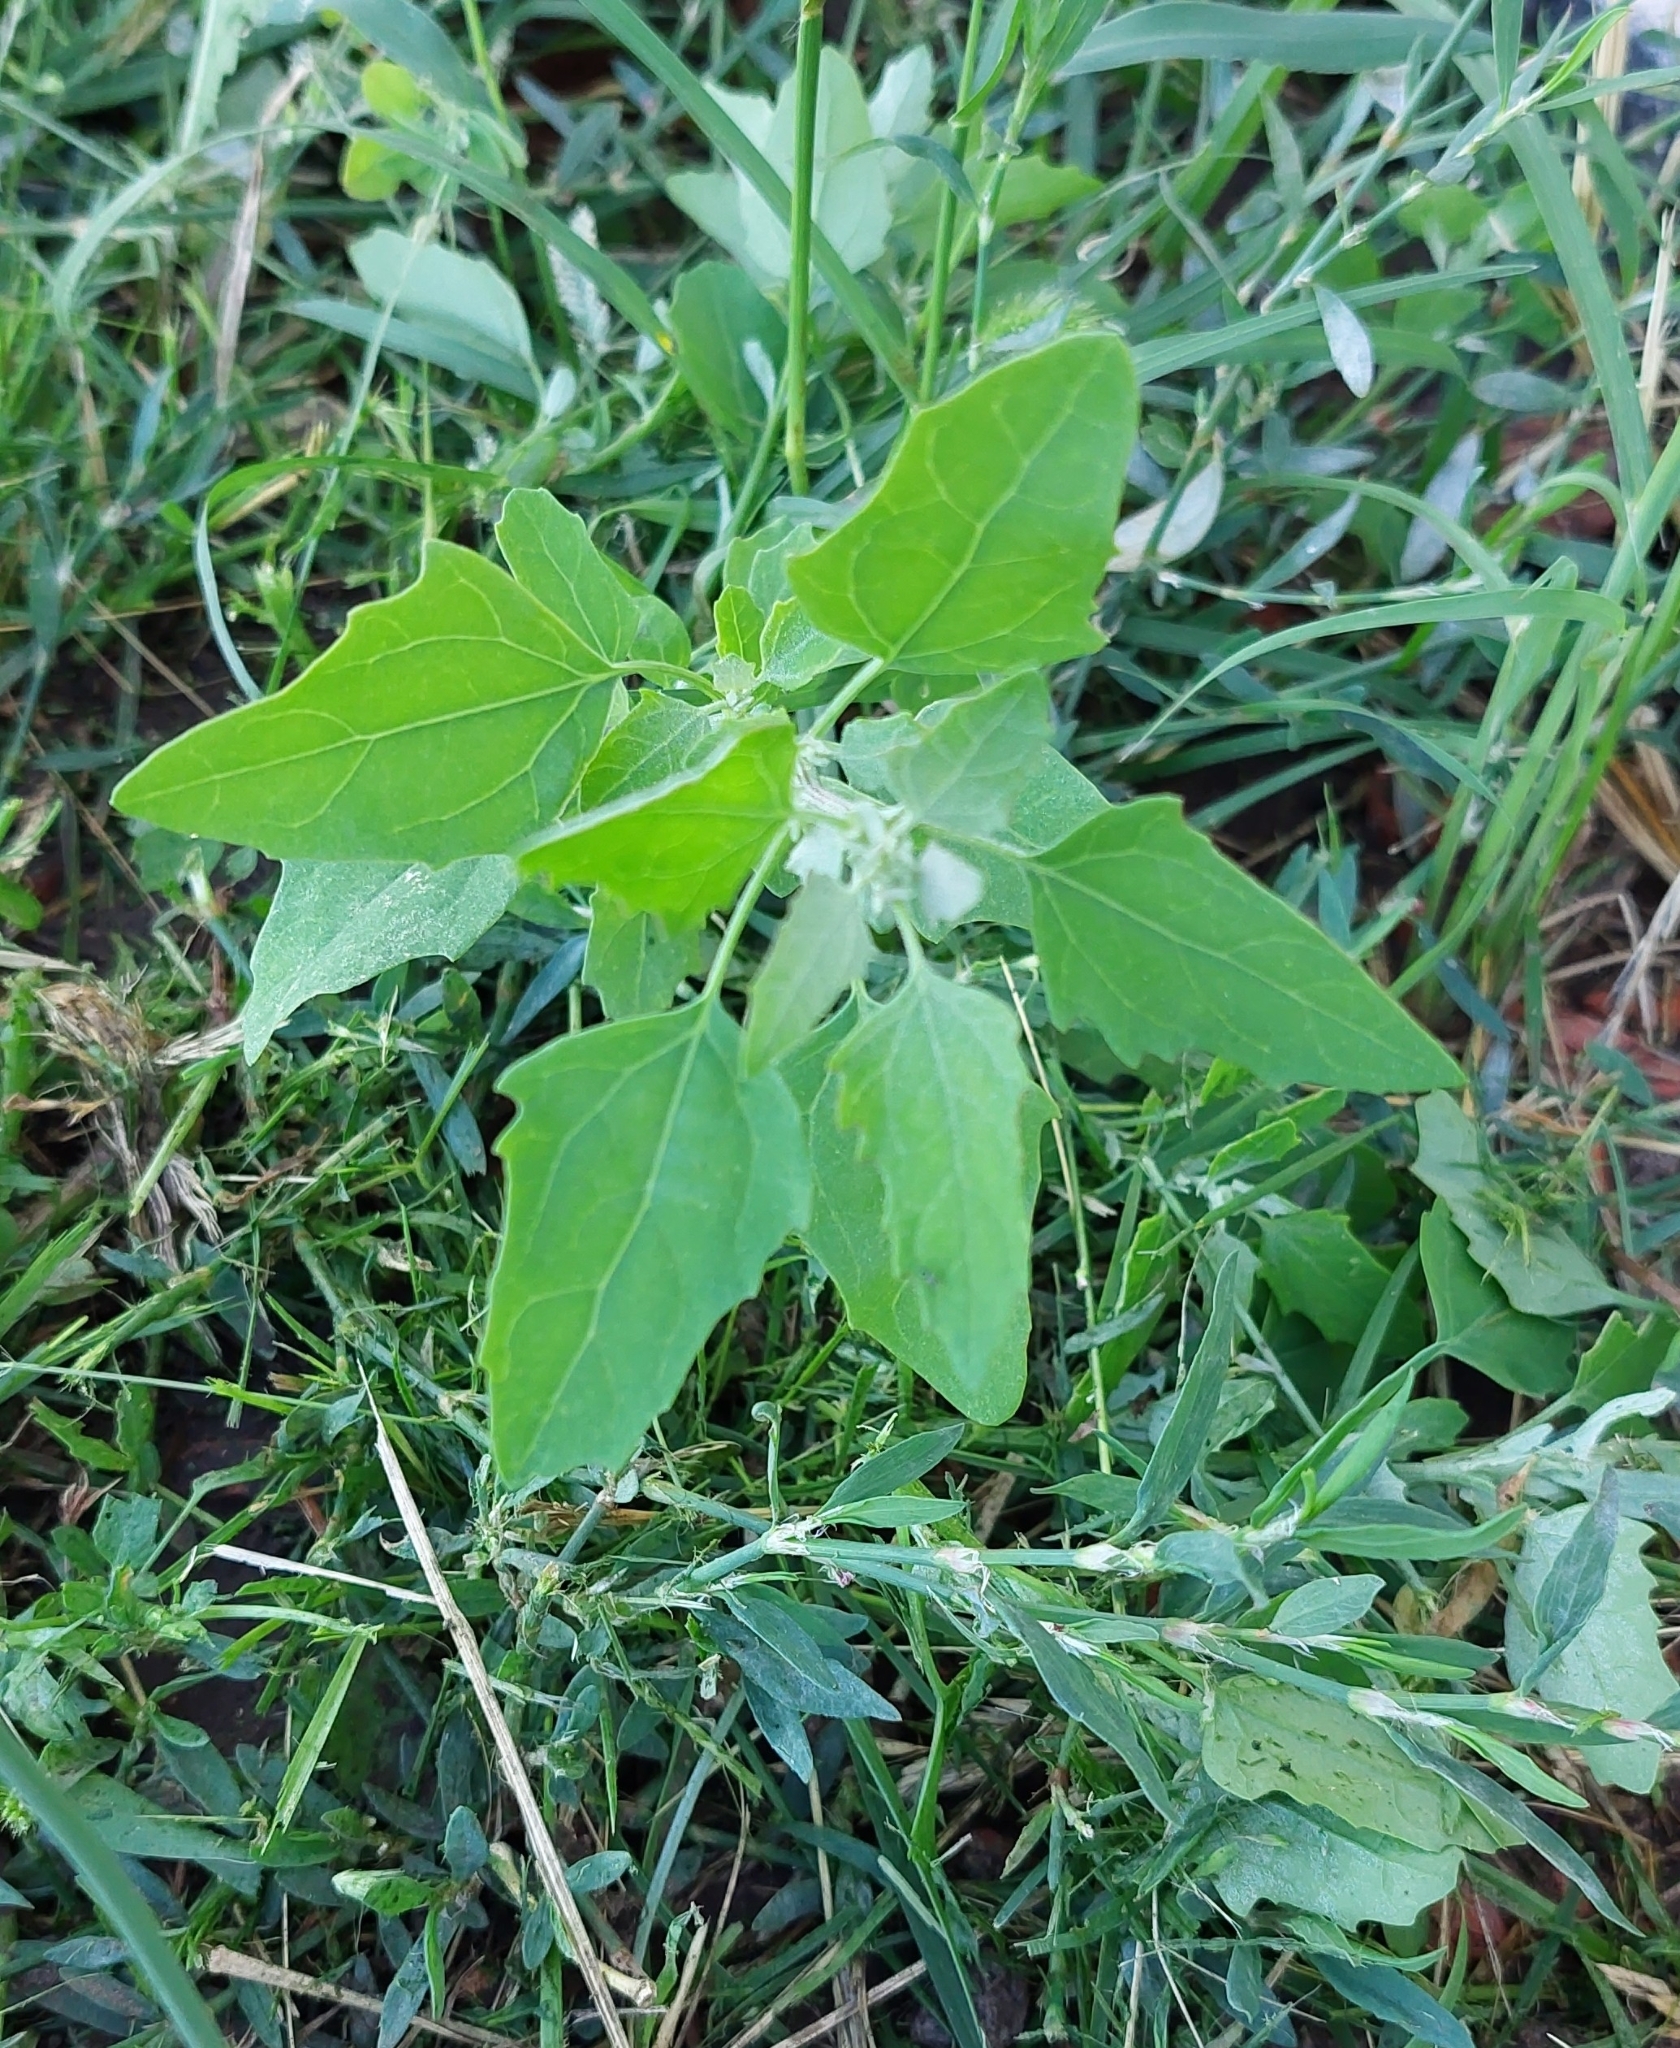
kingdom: Plantae
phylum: Tracheophyta
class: Magnoliopsida
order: Caryophyllales
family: Amaranthaceae
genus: Chenopodium
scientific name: Chenopodium album
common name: Fat-hen
